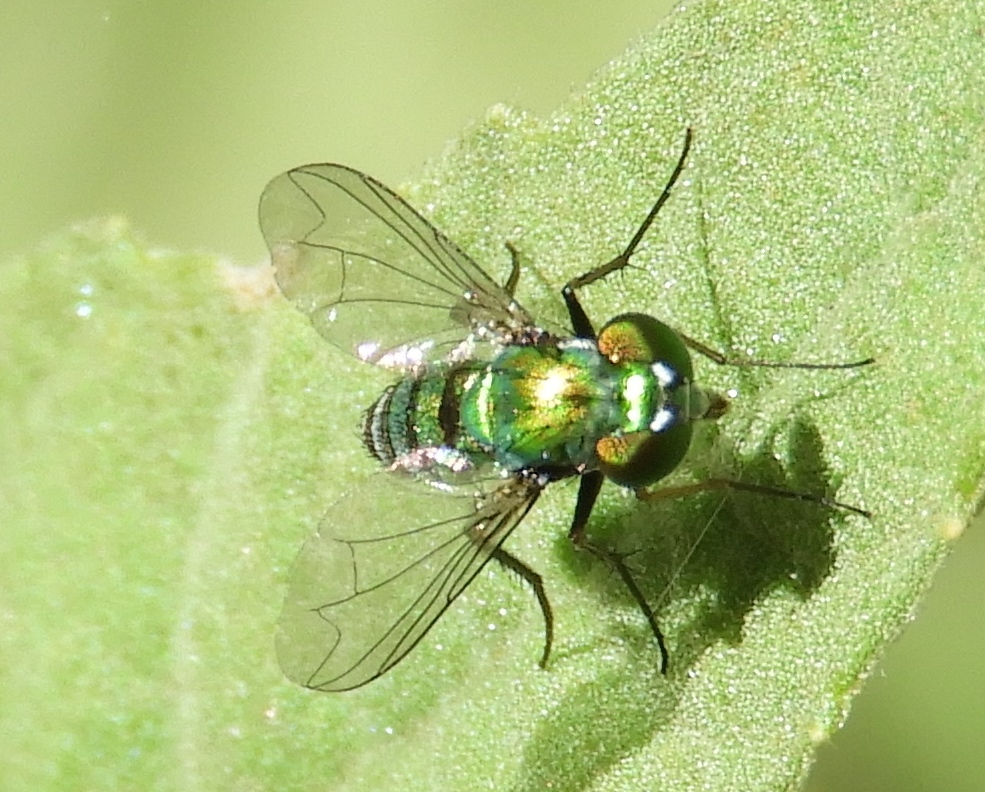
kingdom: Animalia
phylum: Arthropoda
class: Insecta
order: Diptera
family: Dolichopodidae
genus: Condylostylus
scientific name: Condylostylus
